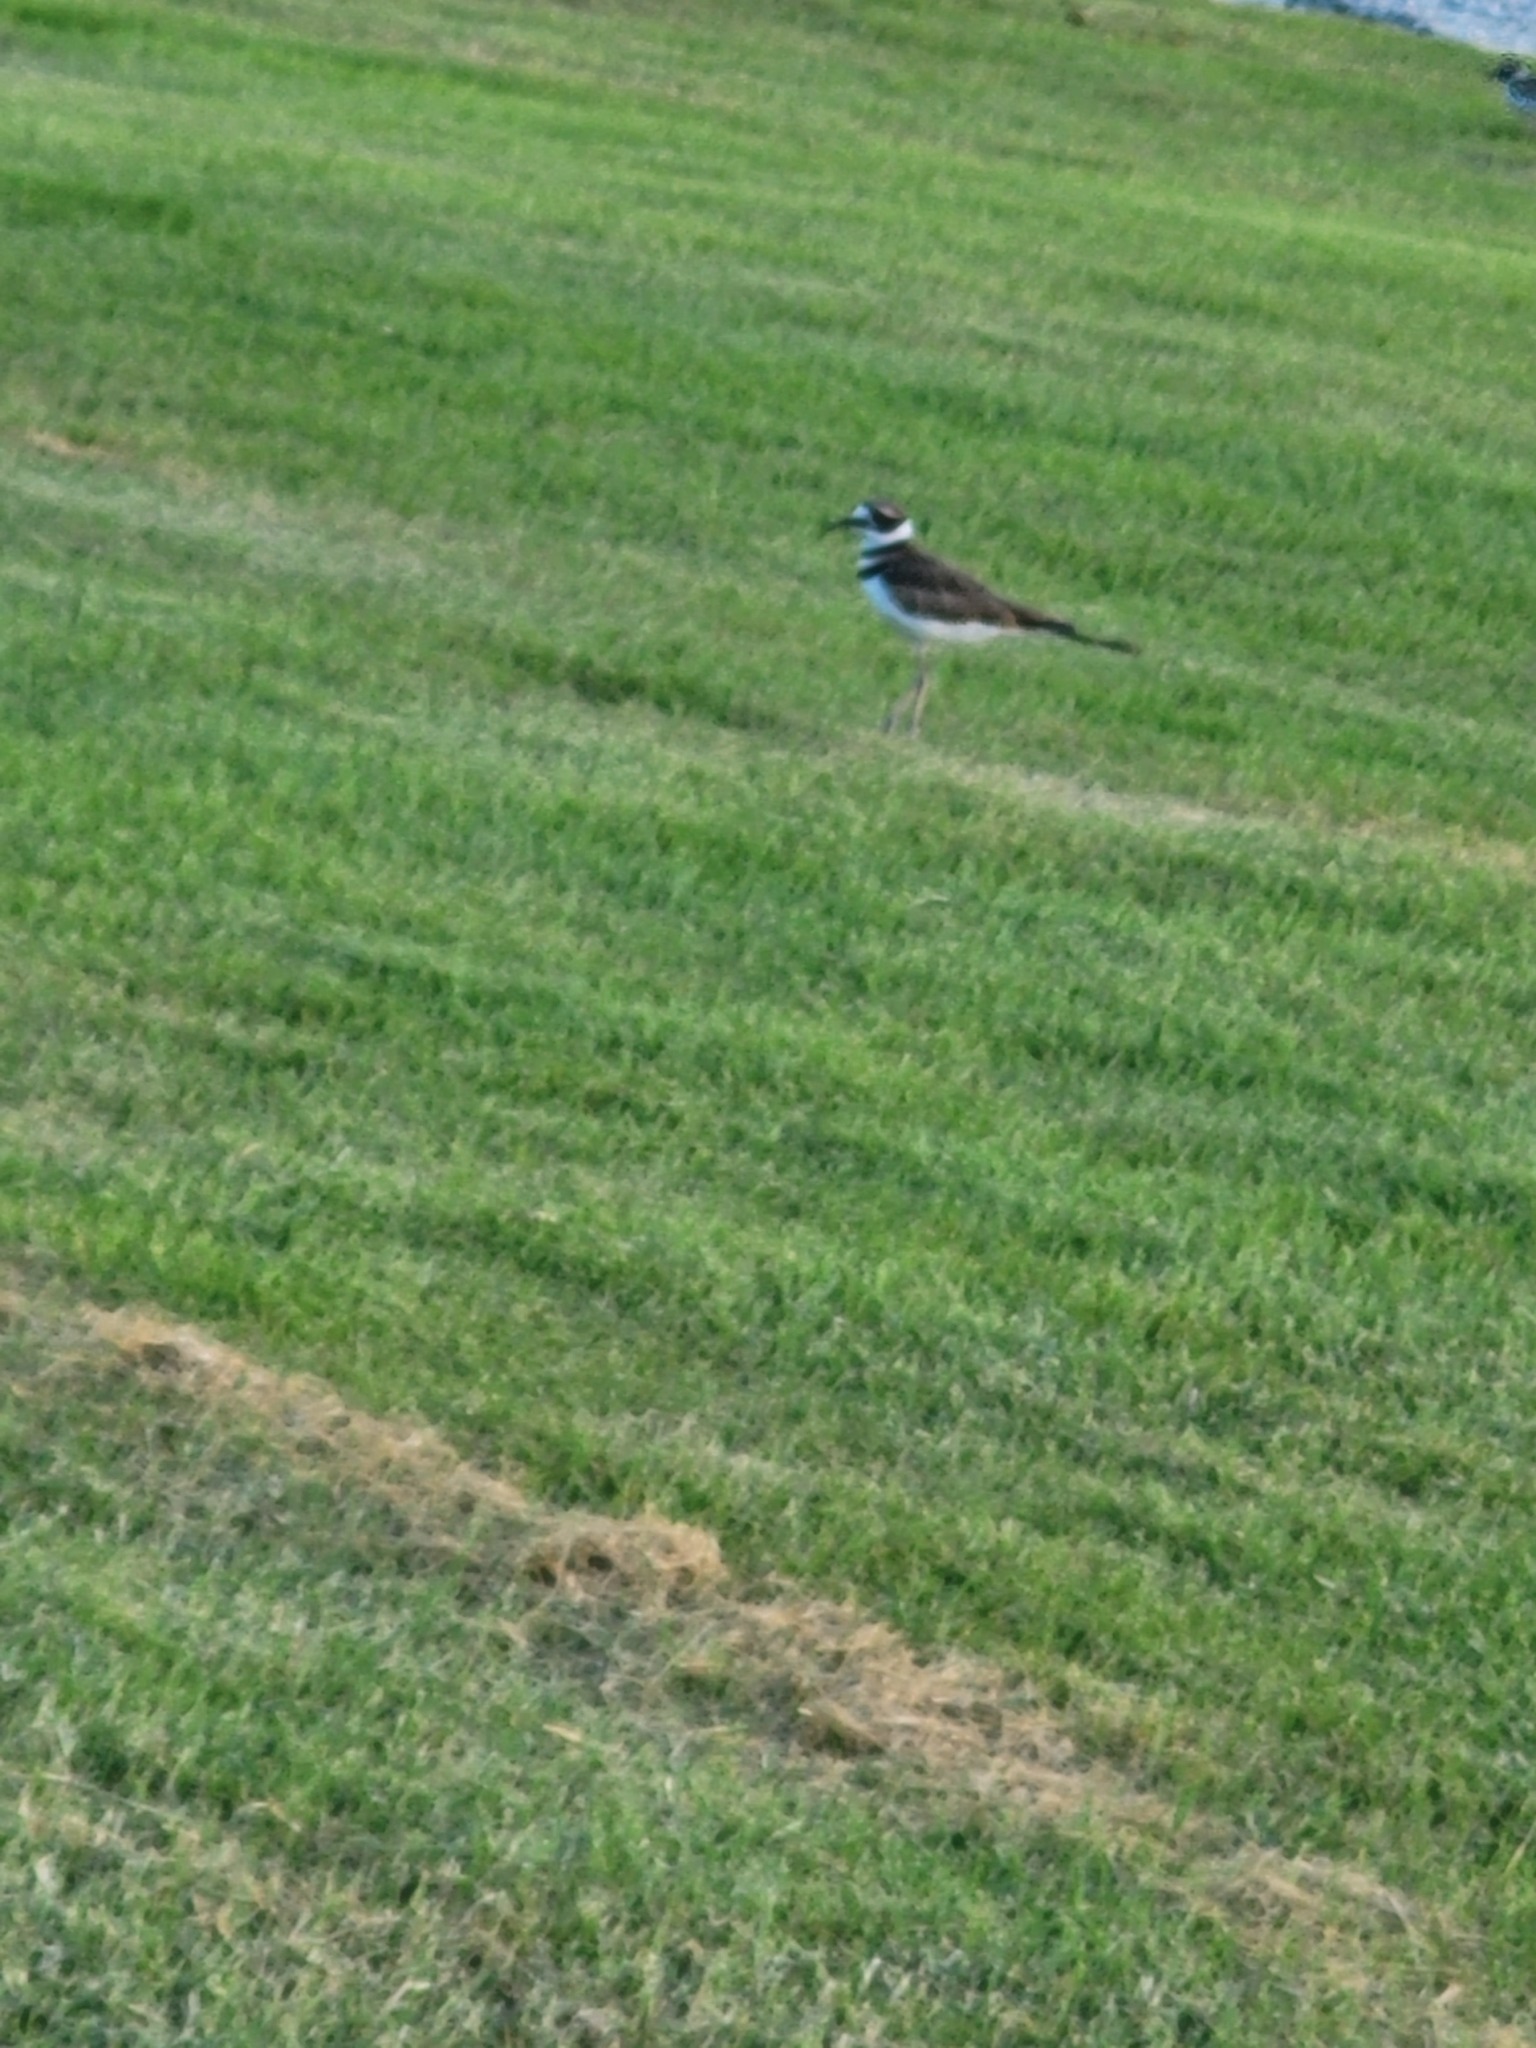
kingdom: Animalia
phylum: Chordata
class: Aves
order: Charadriiformes
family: Charadriidae
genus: Charadrius
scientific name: Charadrius vociferus
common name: Killdeer
